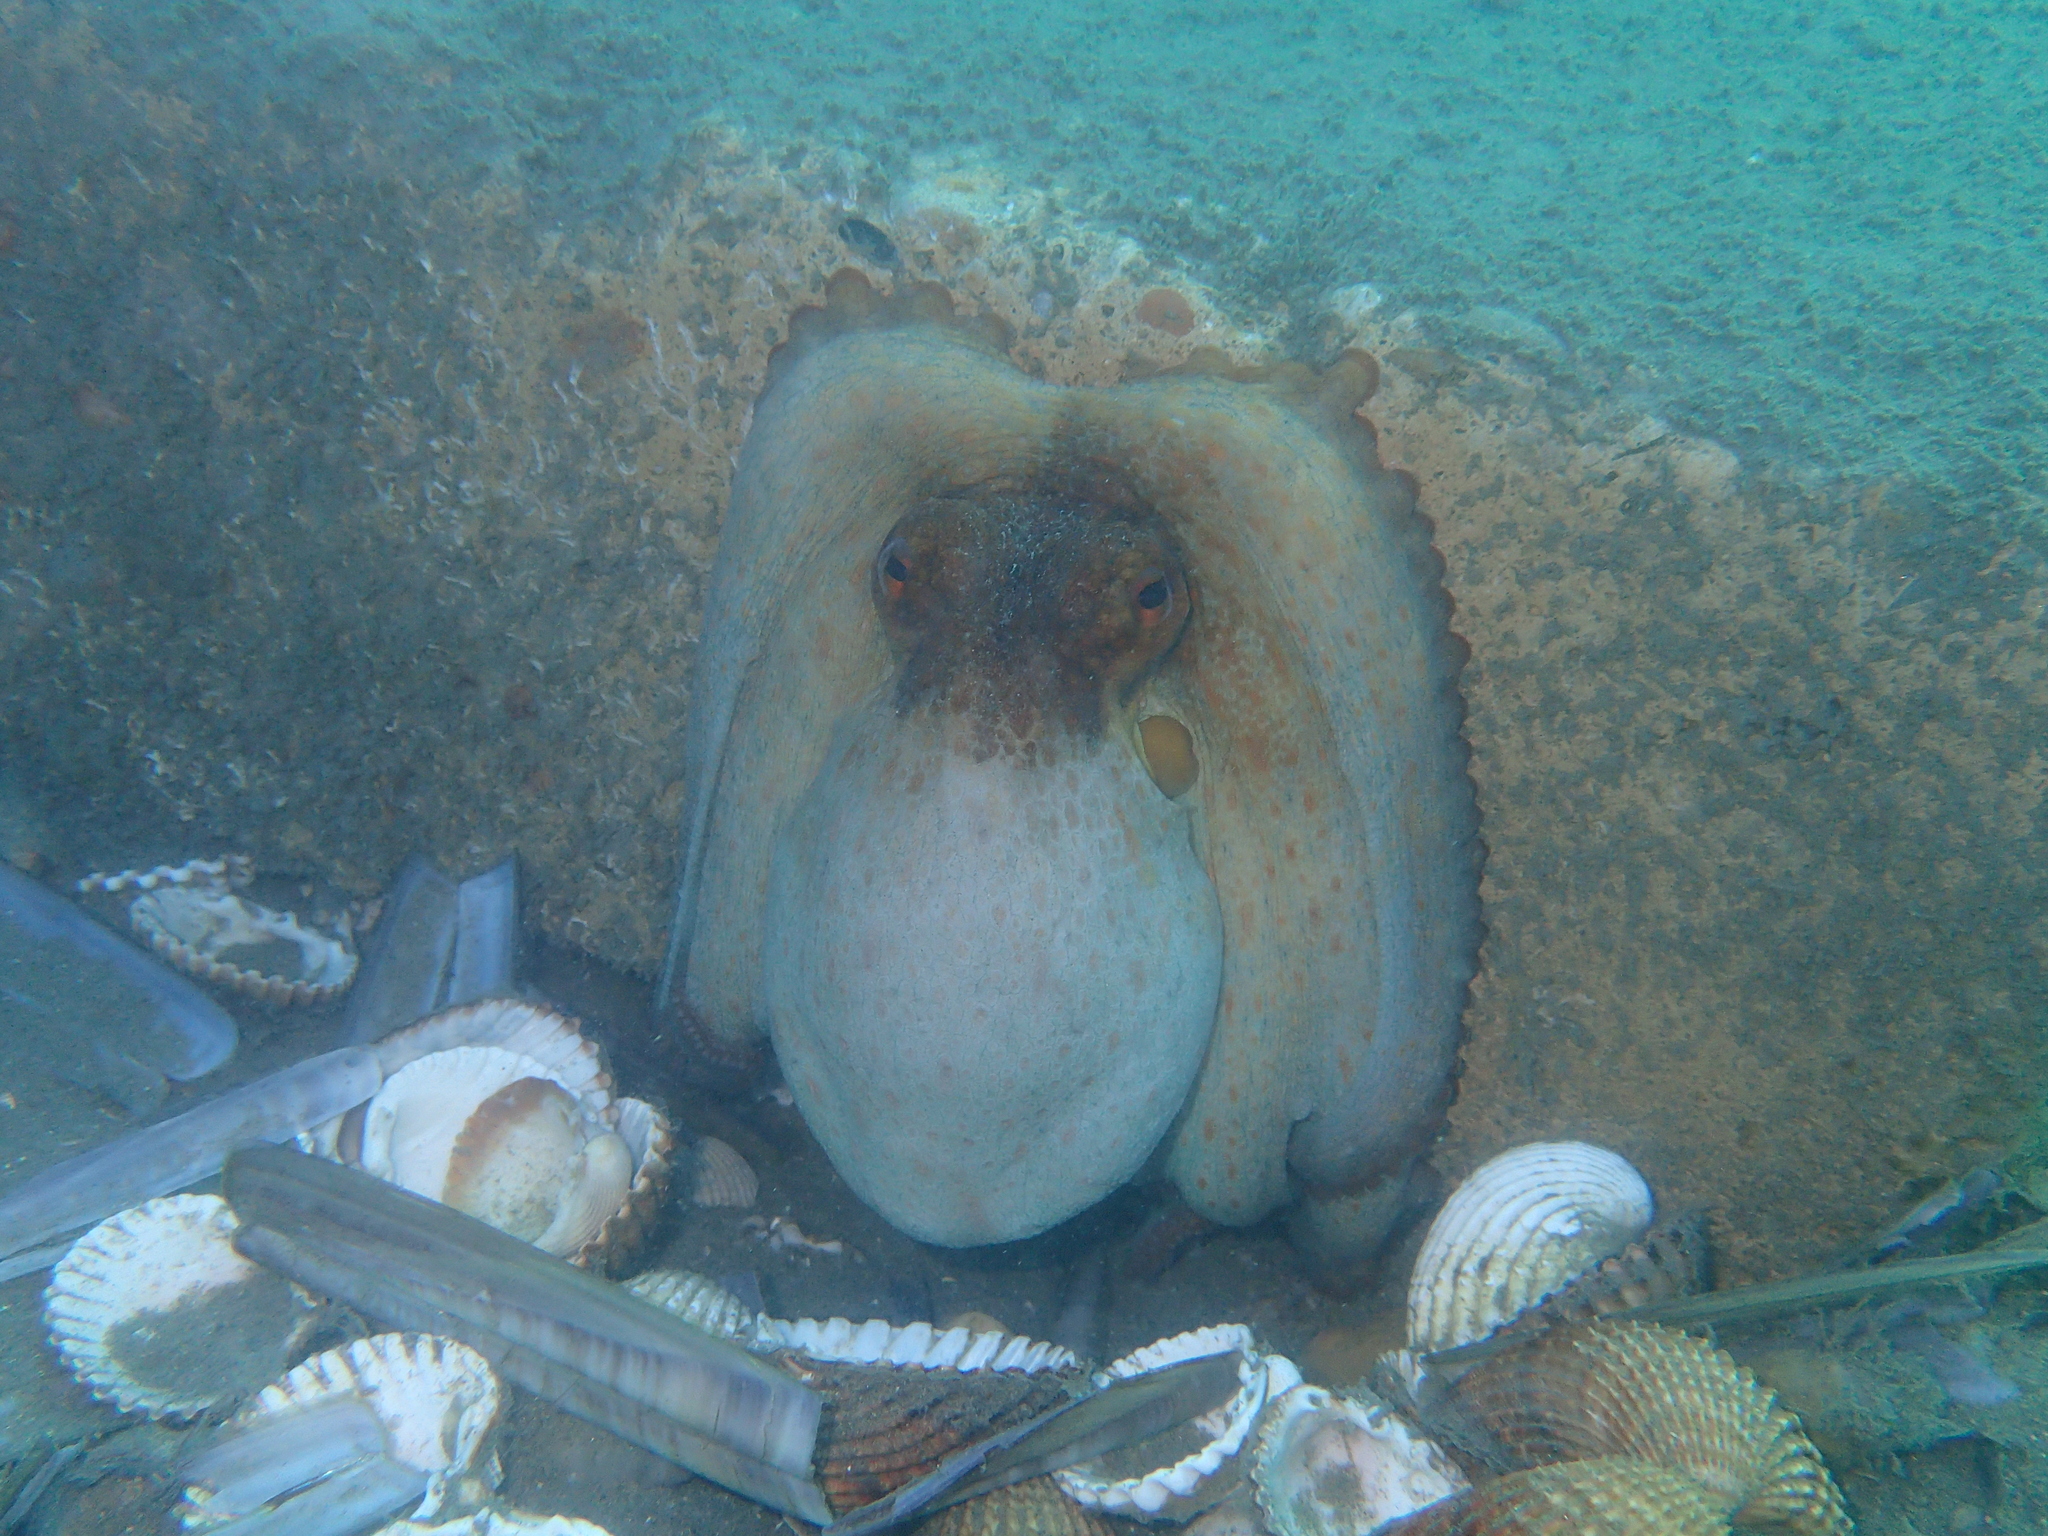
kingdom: Animalia
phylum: Mollusca
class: Cephalopoda
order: Octopoda
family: Octopodidae
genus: Octopus
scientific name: Octopus vulgaris
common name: Common octopus
